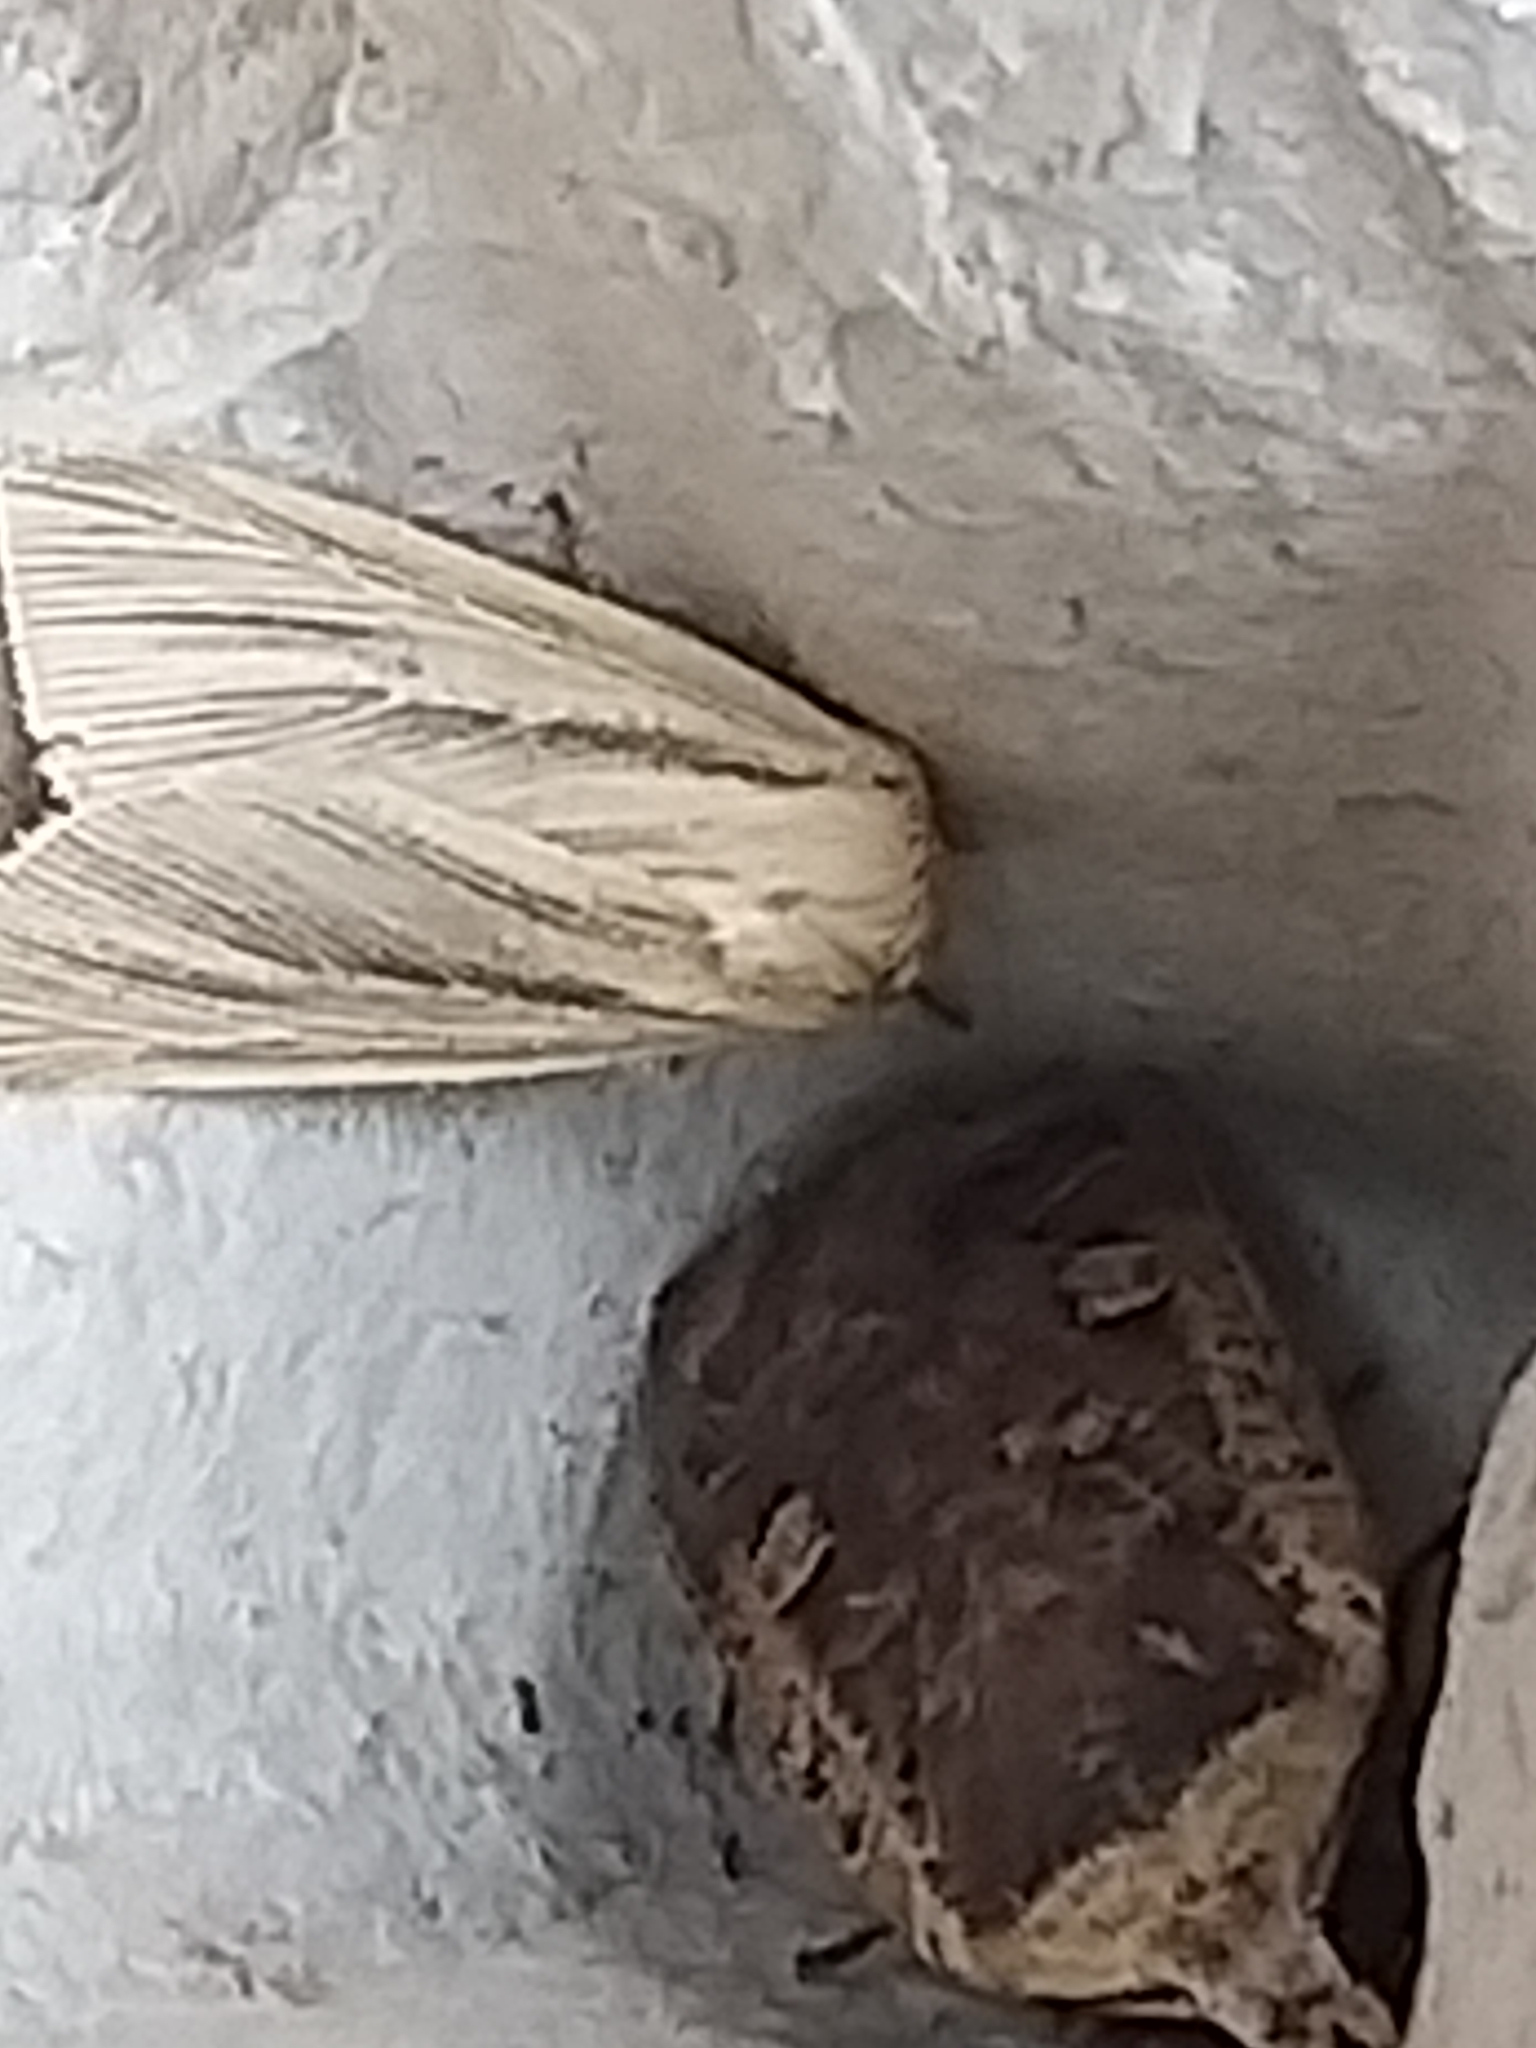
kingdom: Animalia
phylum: Arthropoda
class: Insecta
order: Lepidoptera
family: Noctuidae
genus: Mythimna
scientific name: Mythimna impura
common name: Smoky wainscot
